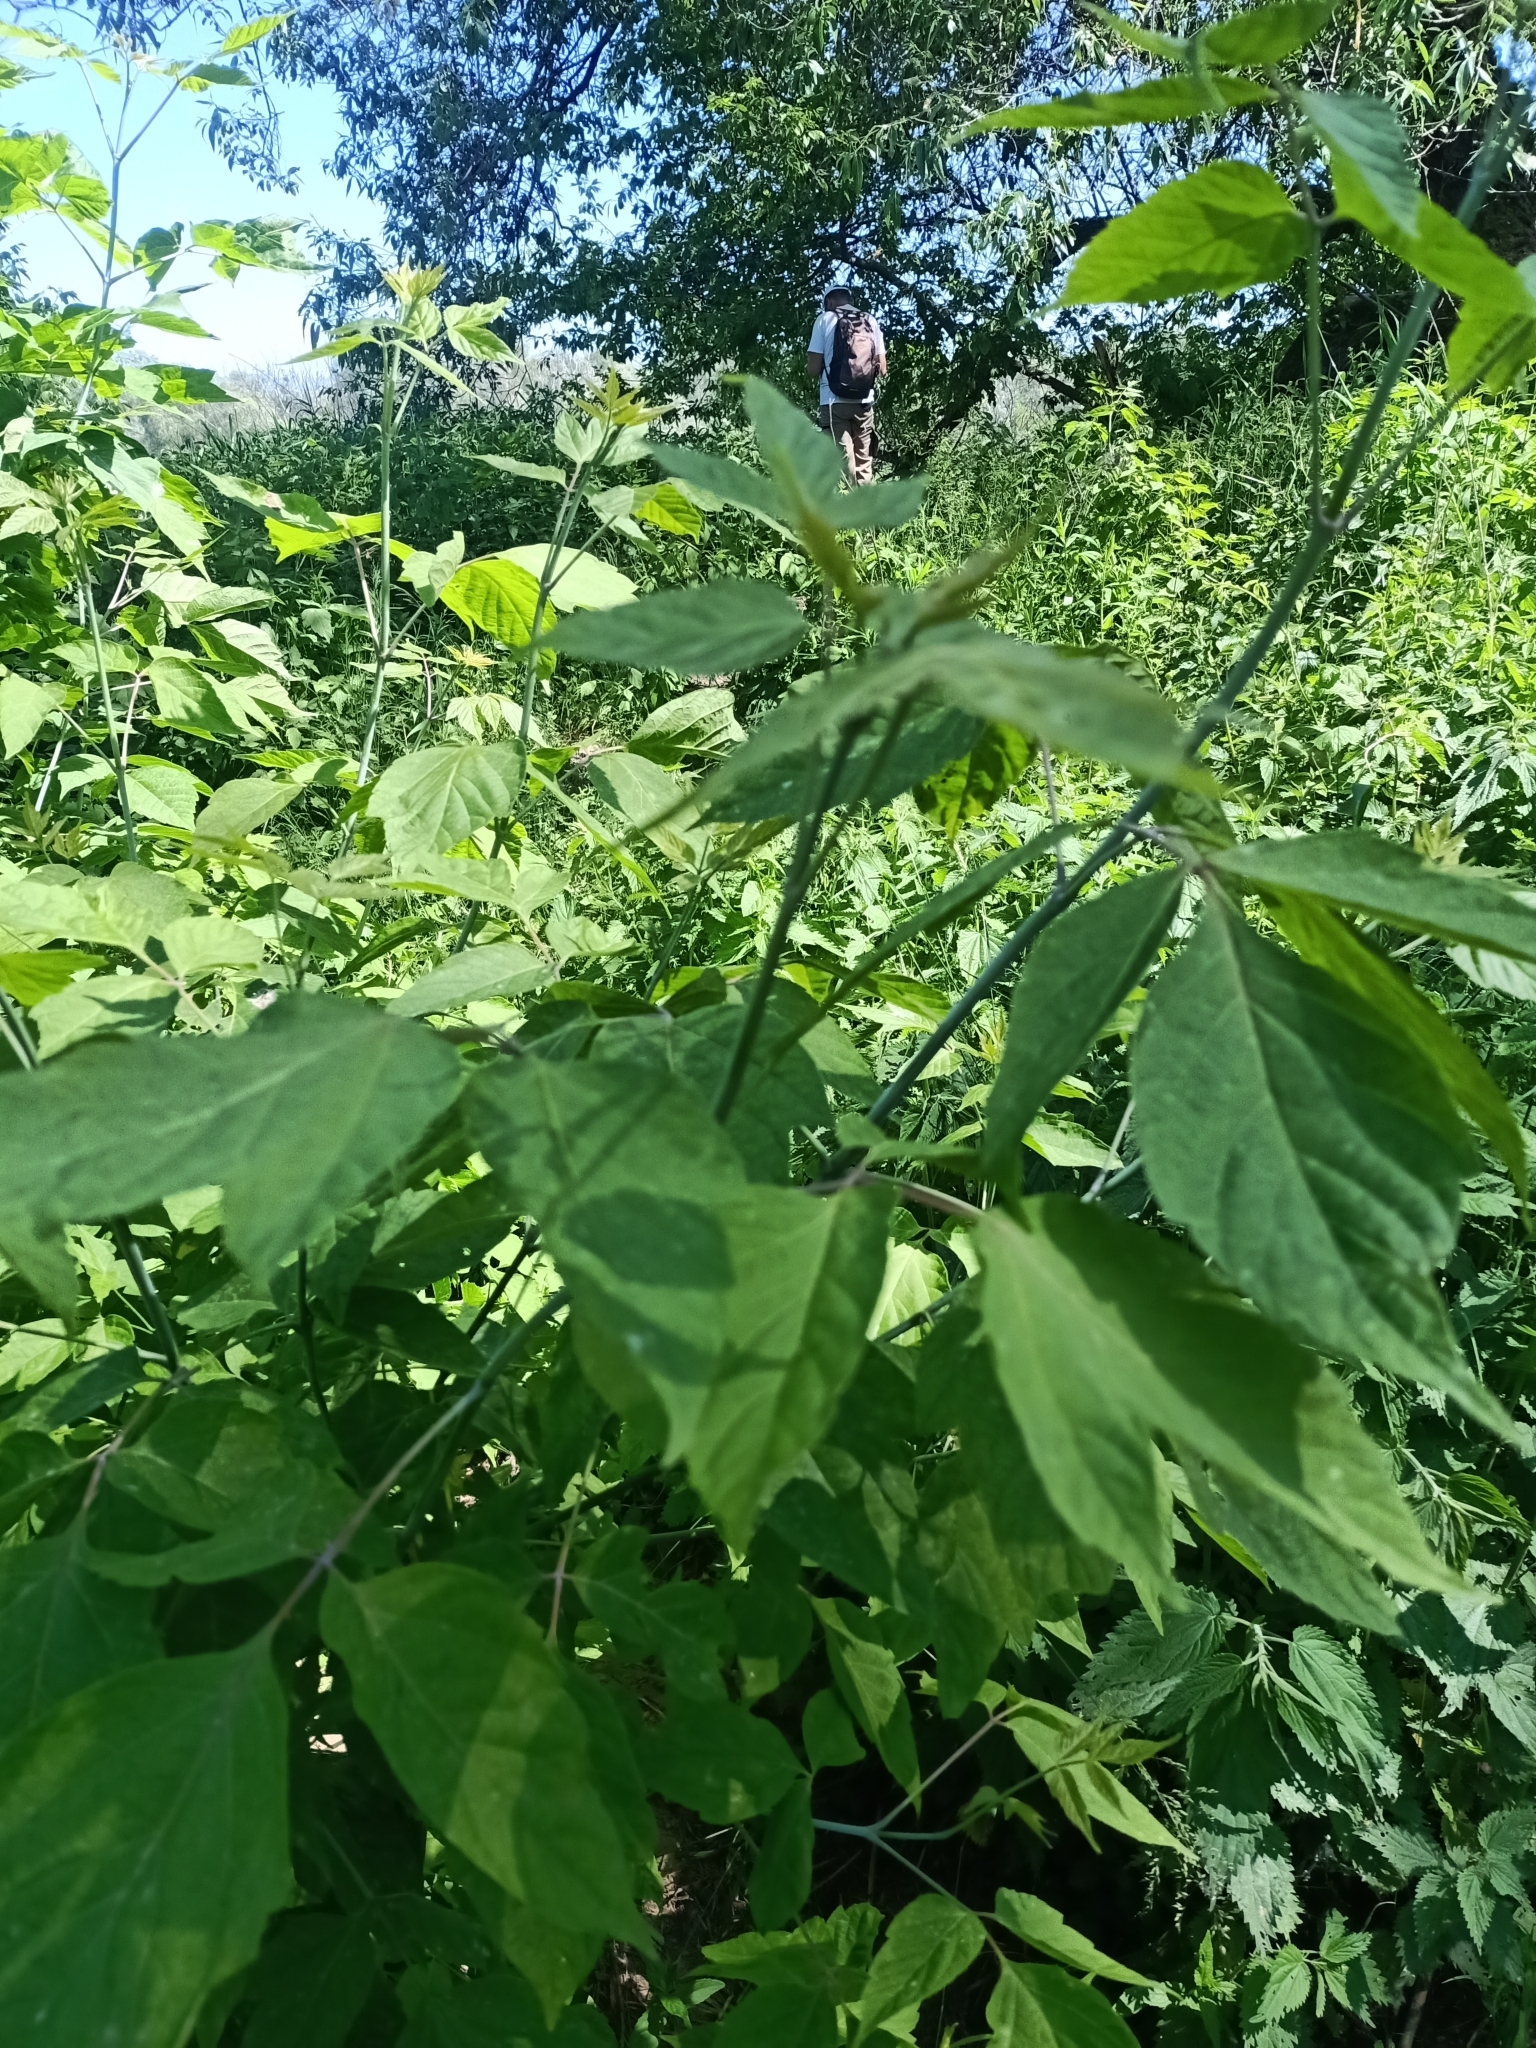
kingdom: Plantae
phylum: Tracheophyta
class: Magnoliopsida
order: Sapindales
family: Sapindaceae
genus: Acer
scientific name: Acer negundo
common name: Ashleaf maple
